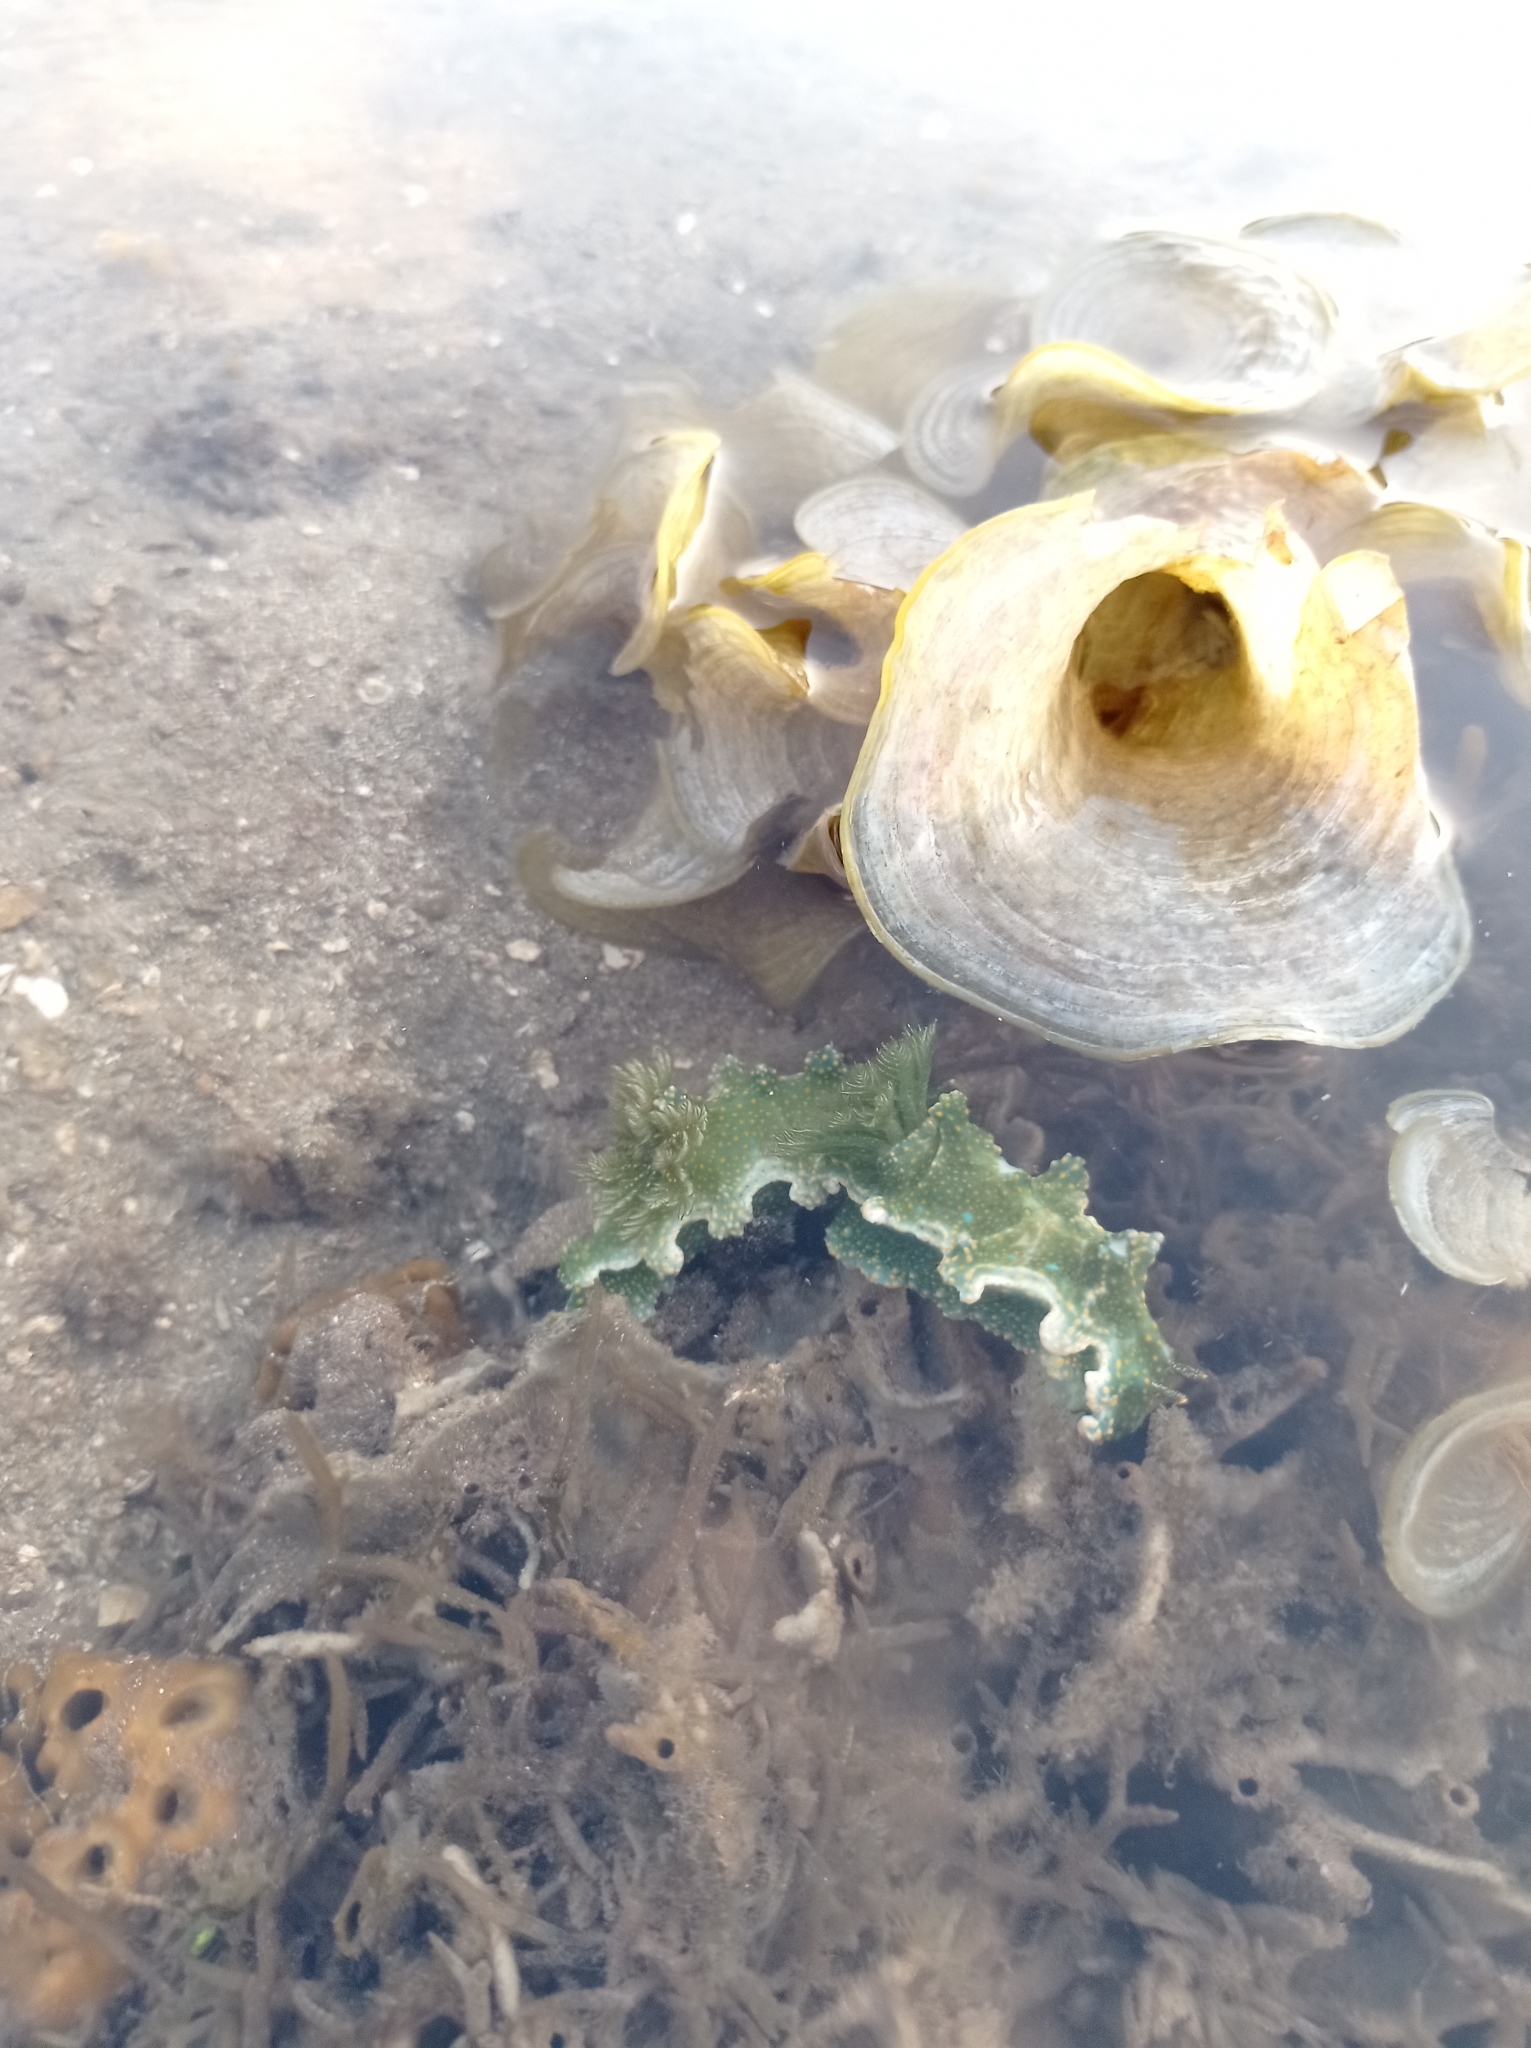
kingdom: Animalia
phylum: Mollusca
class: Gastropoda
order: Nudibranchia
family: Chromodorididae
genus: Miamira
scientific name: Miamira sinuata
